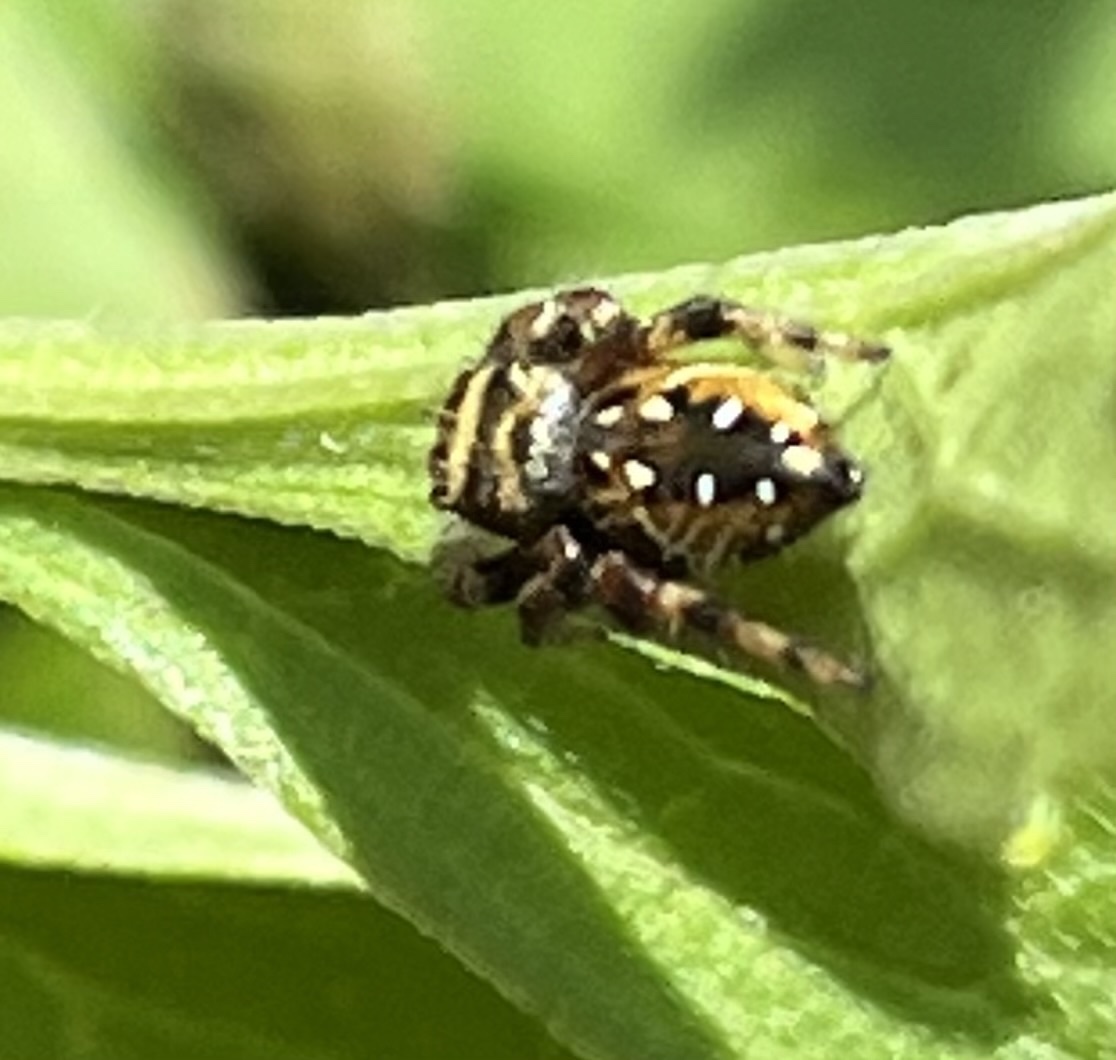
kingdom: Animalia
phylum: Arthropoda
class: Arachnida
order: Araneae
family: Salticidae
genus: Phidippus
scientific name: Phidippus clarus
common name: Brilliant jumping spider
